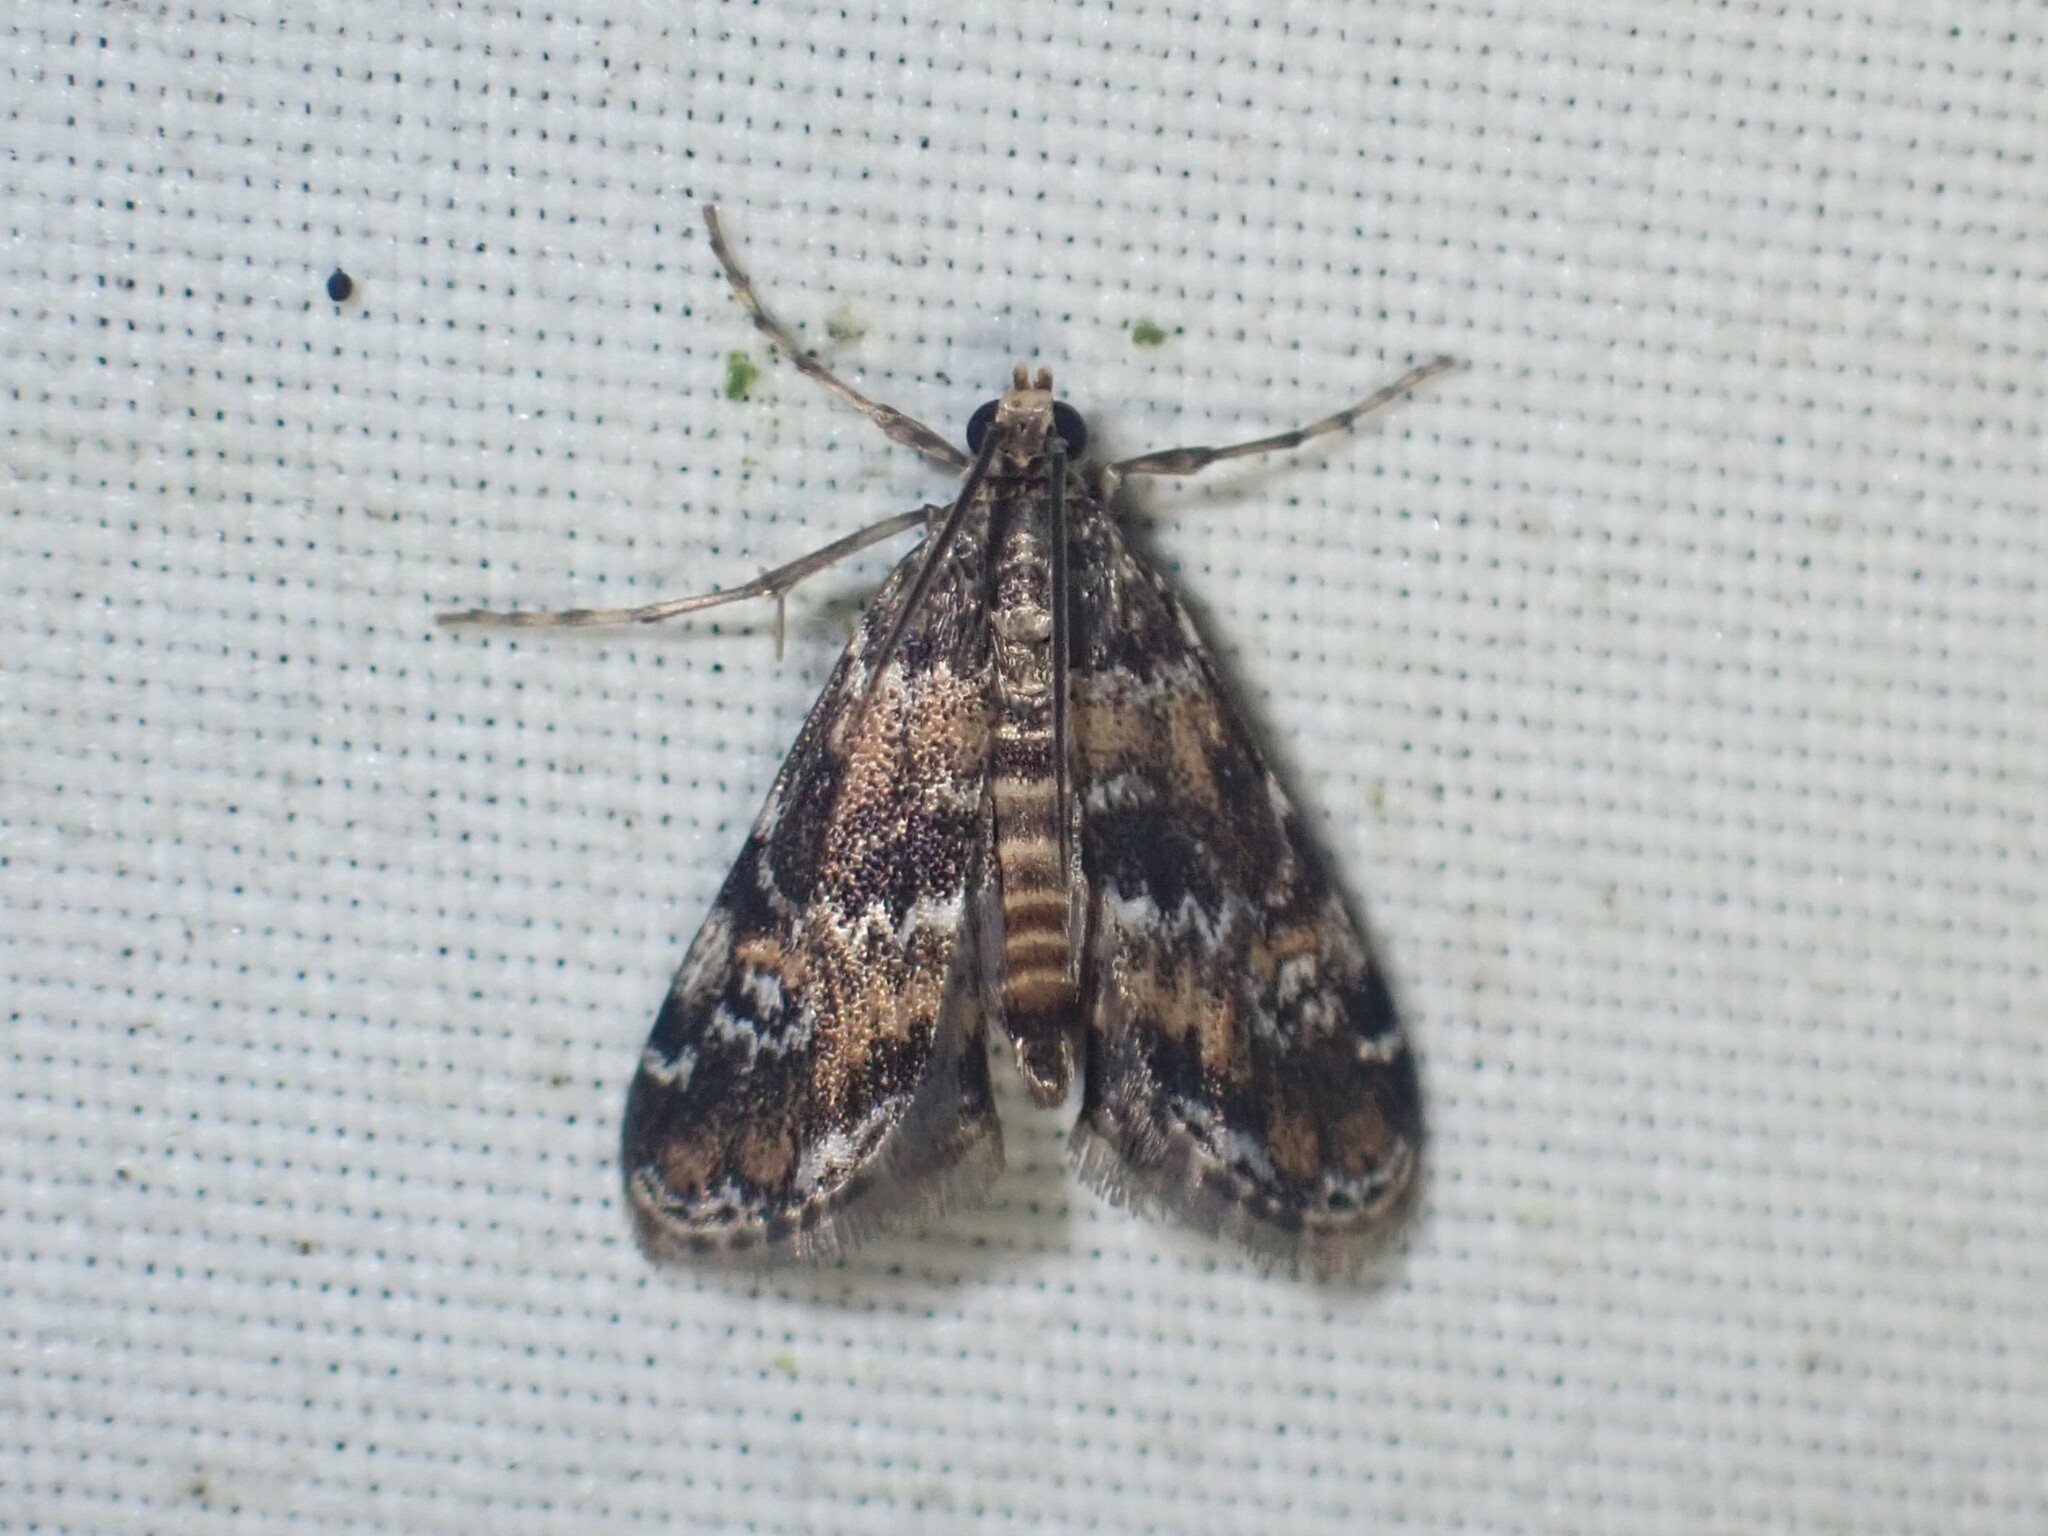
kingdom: Animalia
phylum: Arthropoda
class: Insecta
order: Lepidoptera
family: Crambidae
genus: Elophila
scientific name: Elophila obliteralis
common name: Waterlily leafcutter moth
